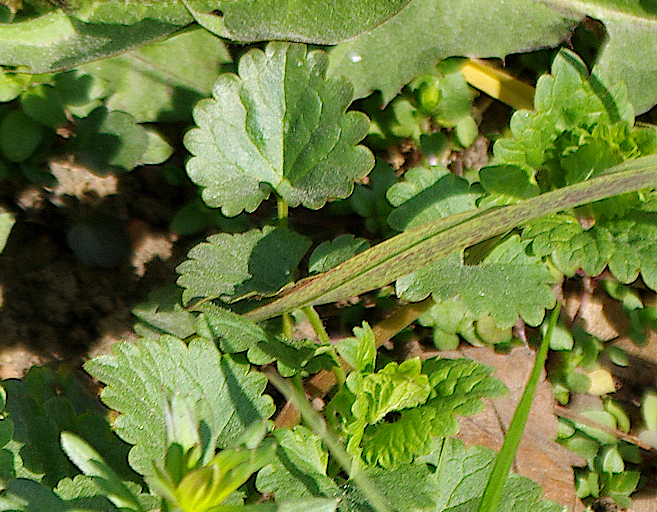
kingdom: Plantae
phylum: Tracheophyta
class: Magnoliopsida
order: Lamiales
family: Lamiaceae
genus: Glechoma
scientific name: Glechoma hederacea
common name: Ground ivy
